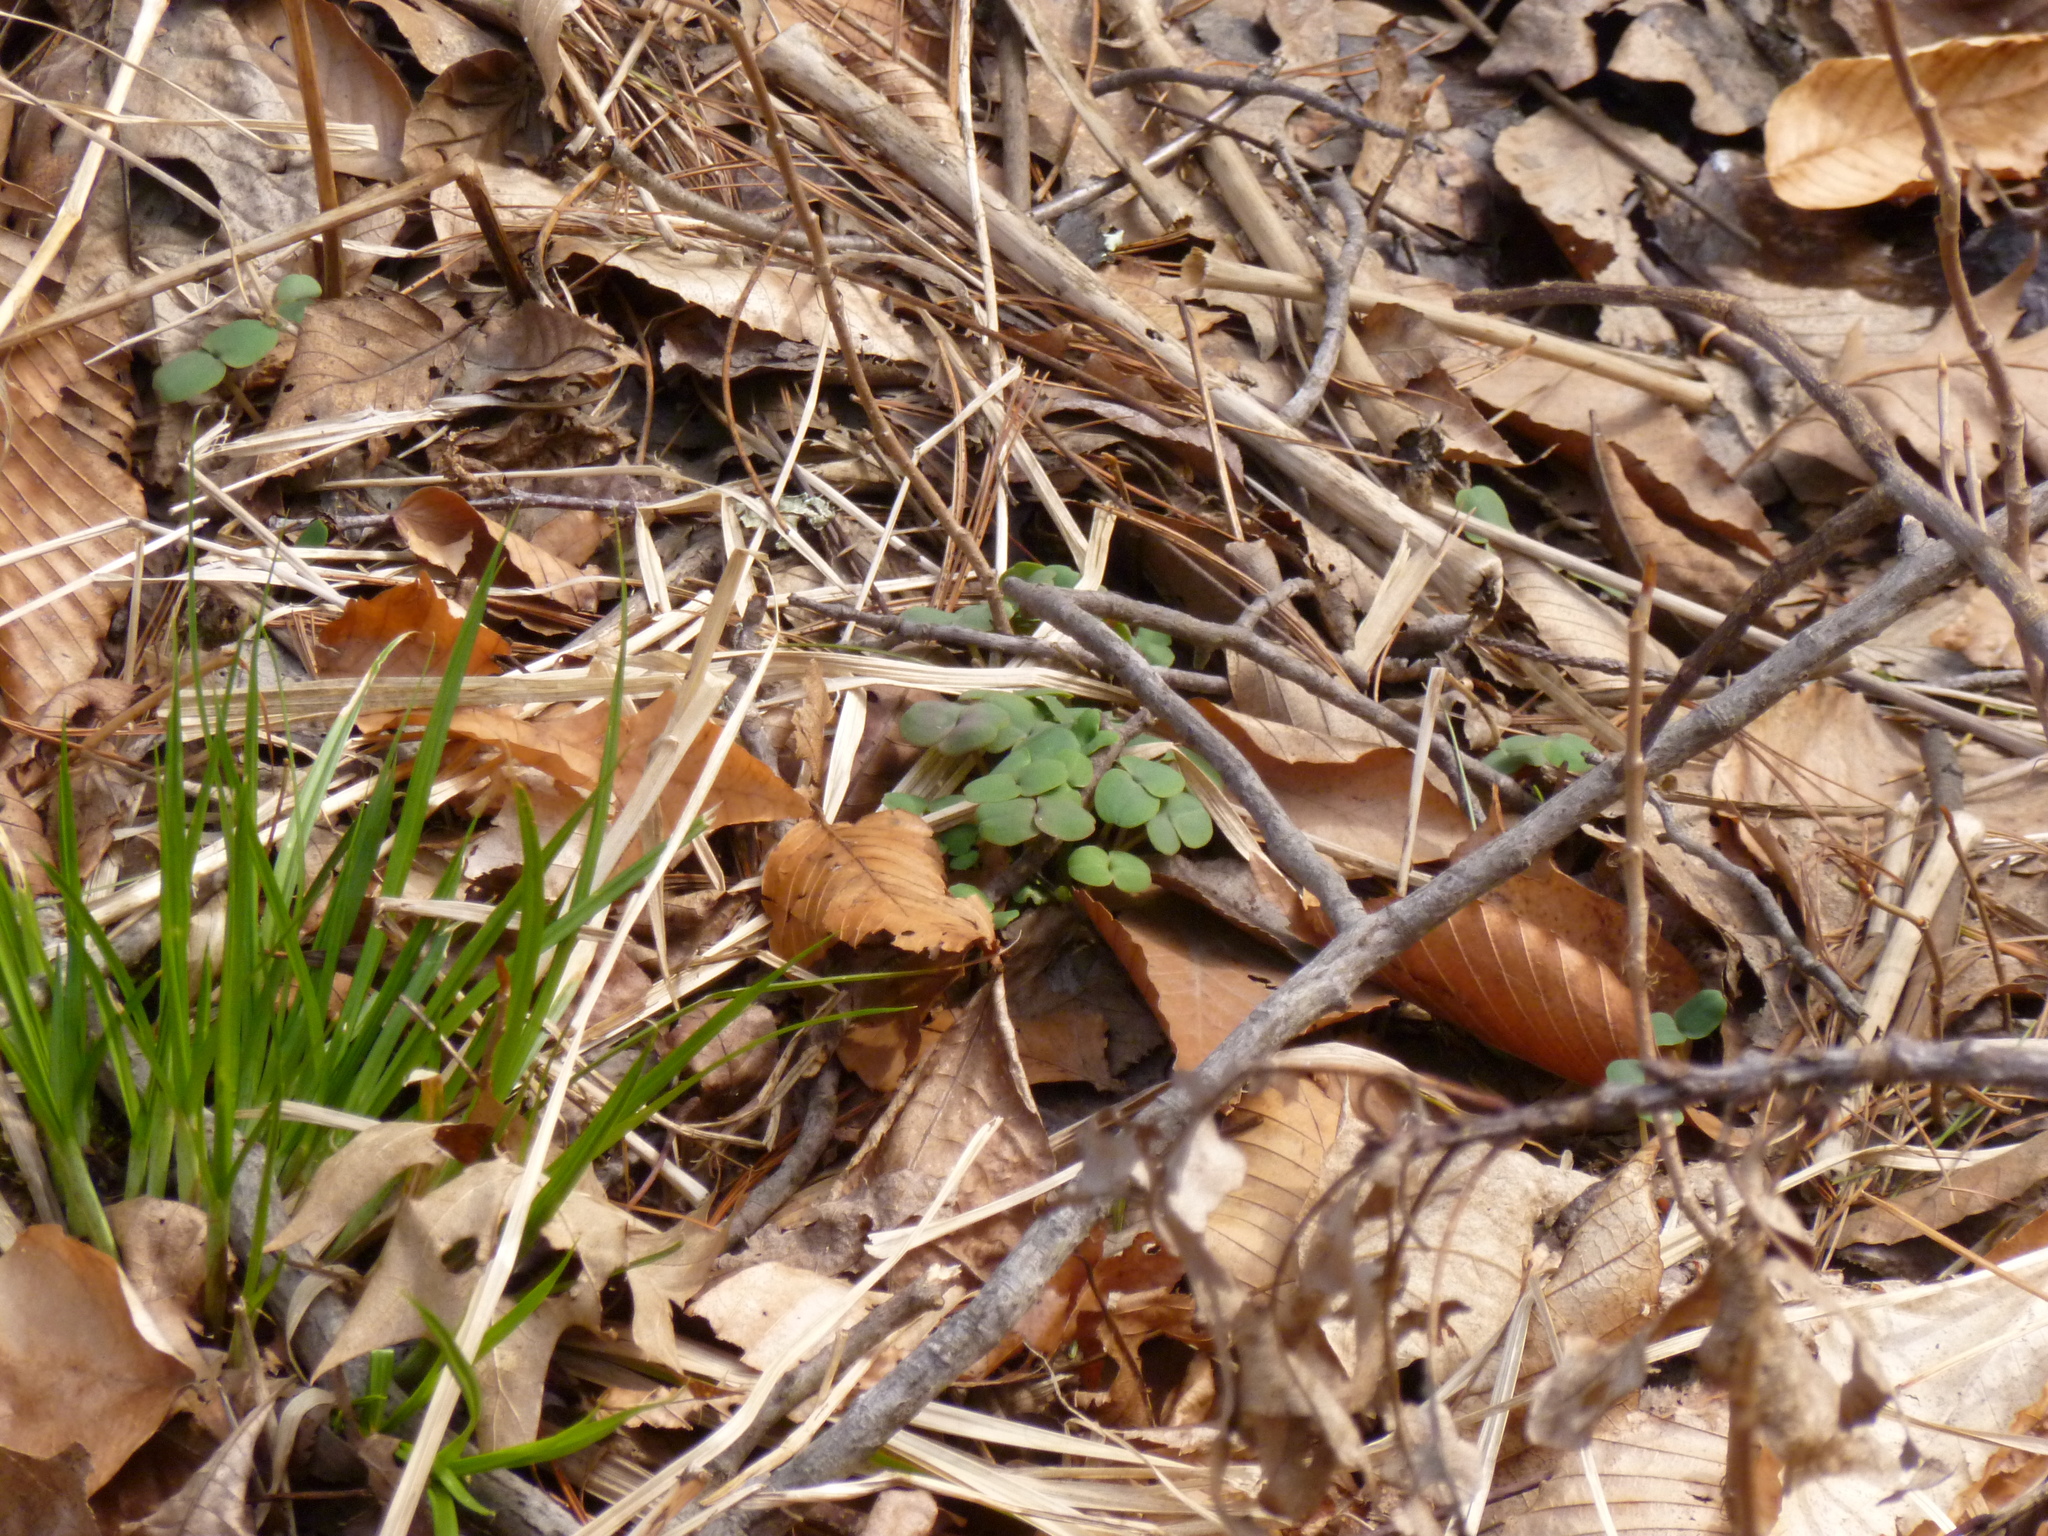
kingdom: Plantae
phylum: Tracheophyta
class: Magnoliopsida
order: Ericales
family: Balsaminaceae
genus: Impatiens
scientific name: Impatiens
